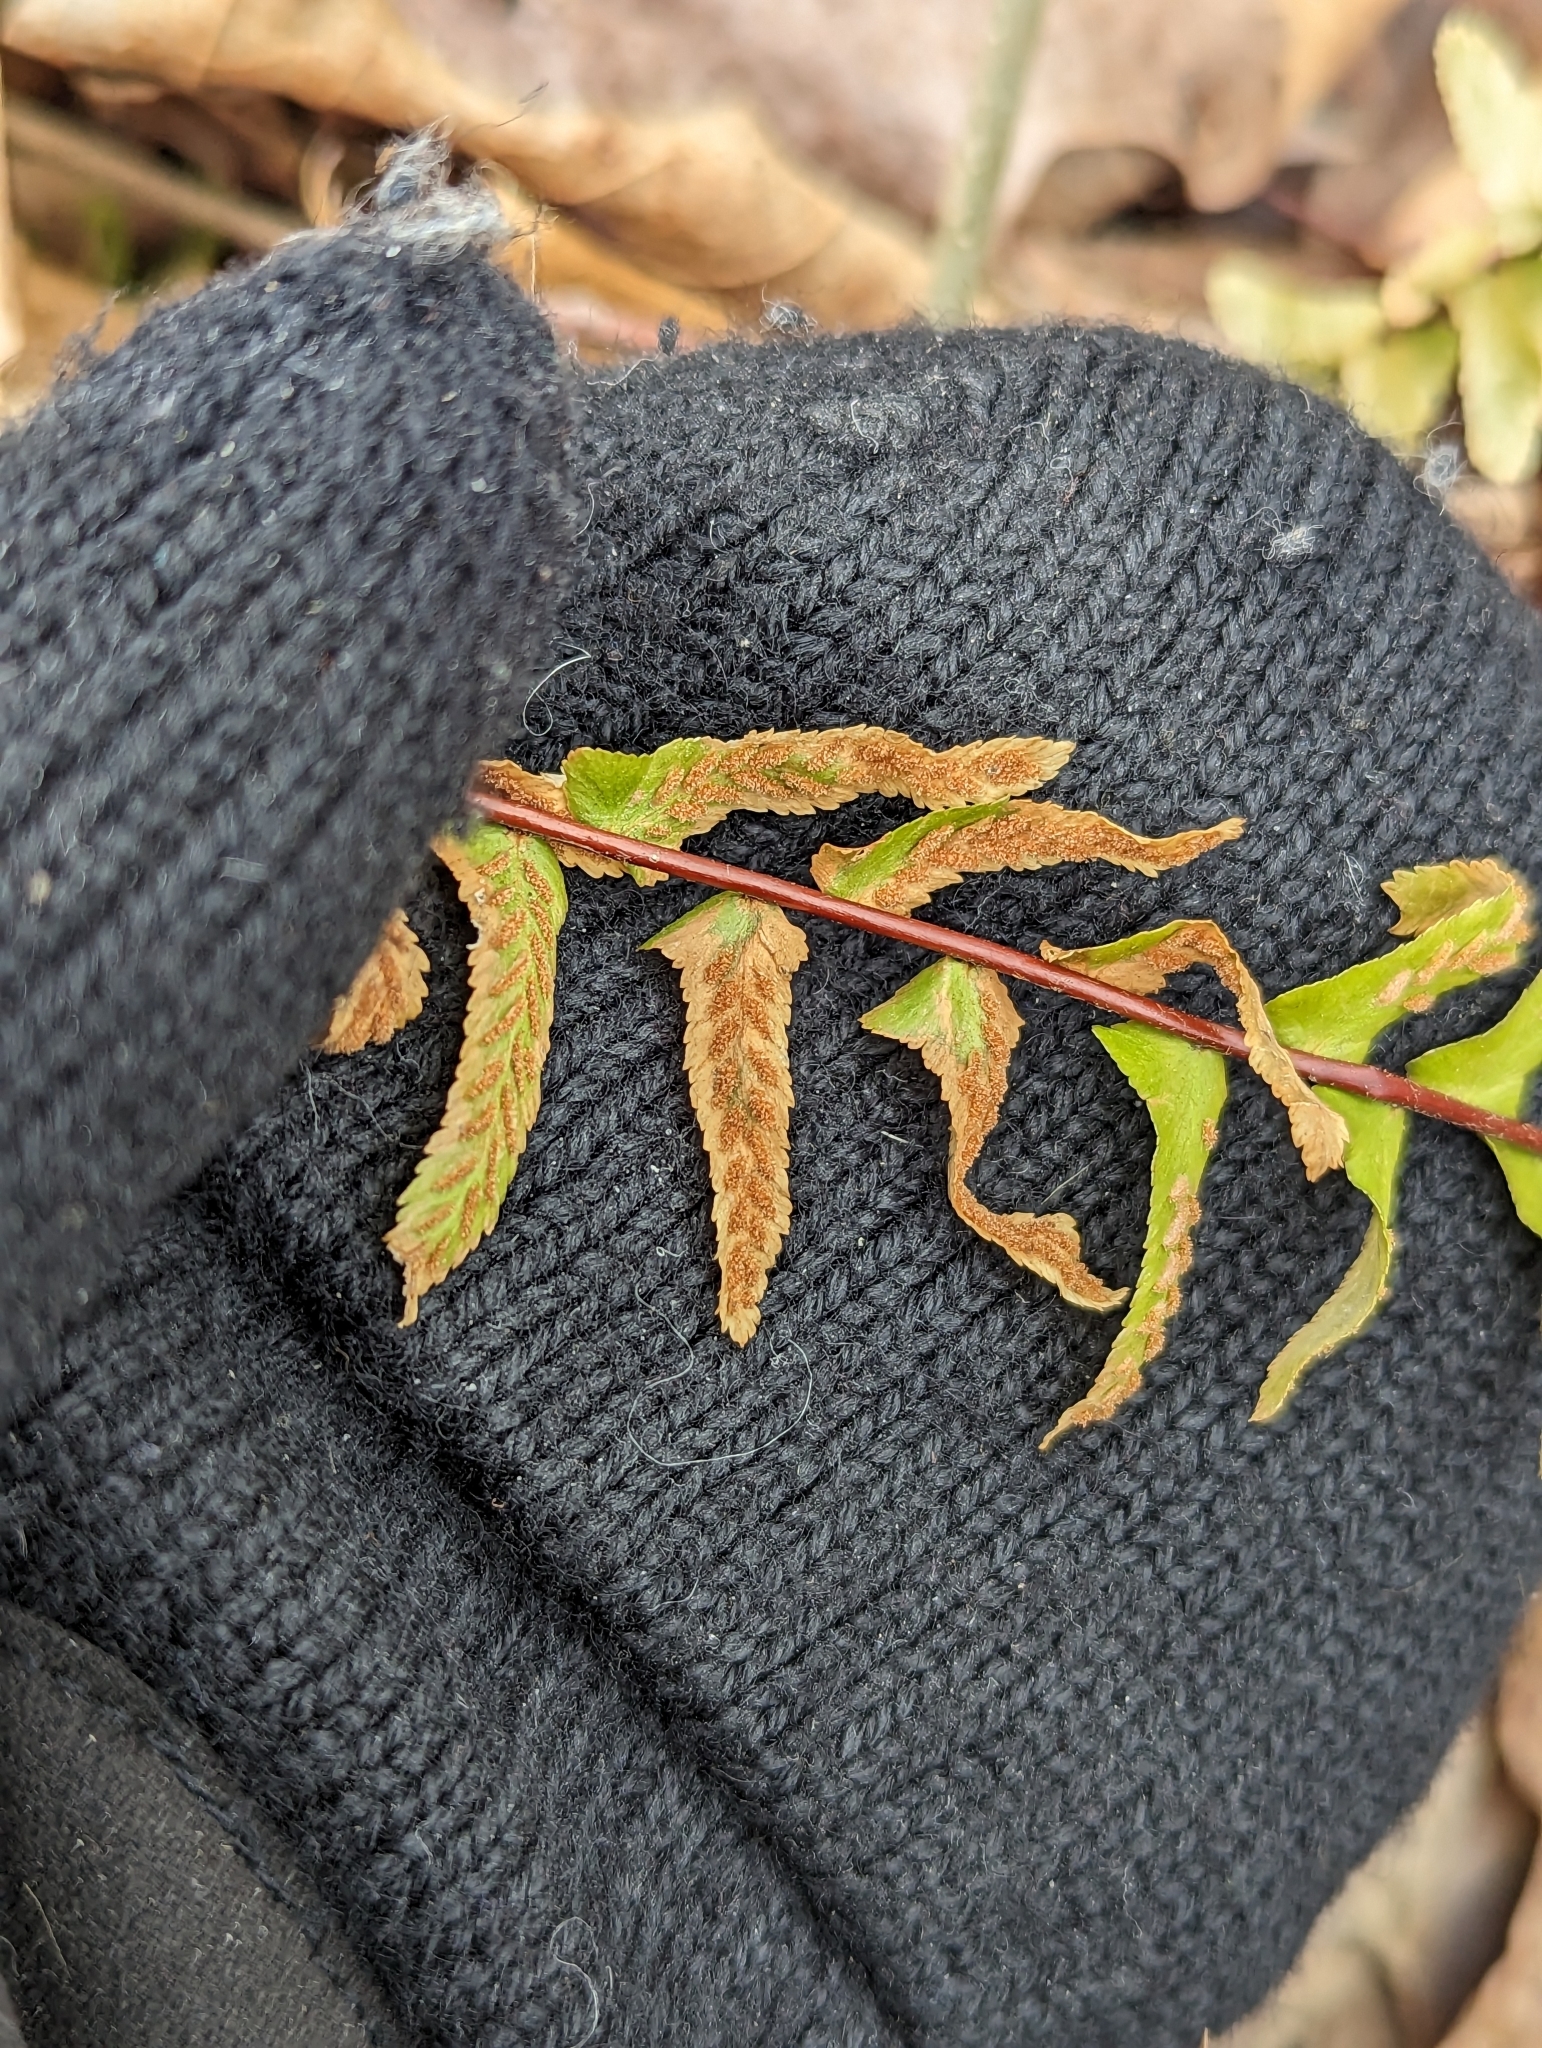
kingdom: Plantae
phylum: Tracheophyta
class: Polypodiopsida
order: Polypodiales
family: Aspleniaceae
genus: Asplenium
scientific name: Asplenium platyneuron
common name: Ebony spleenwort
